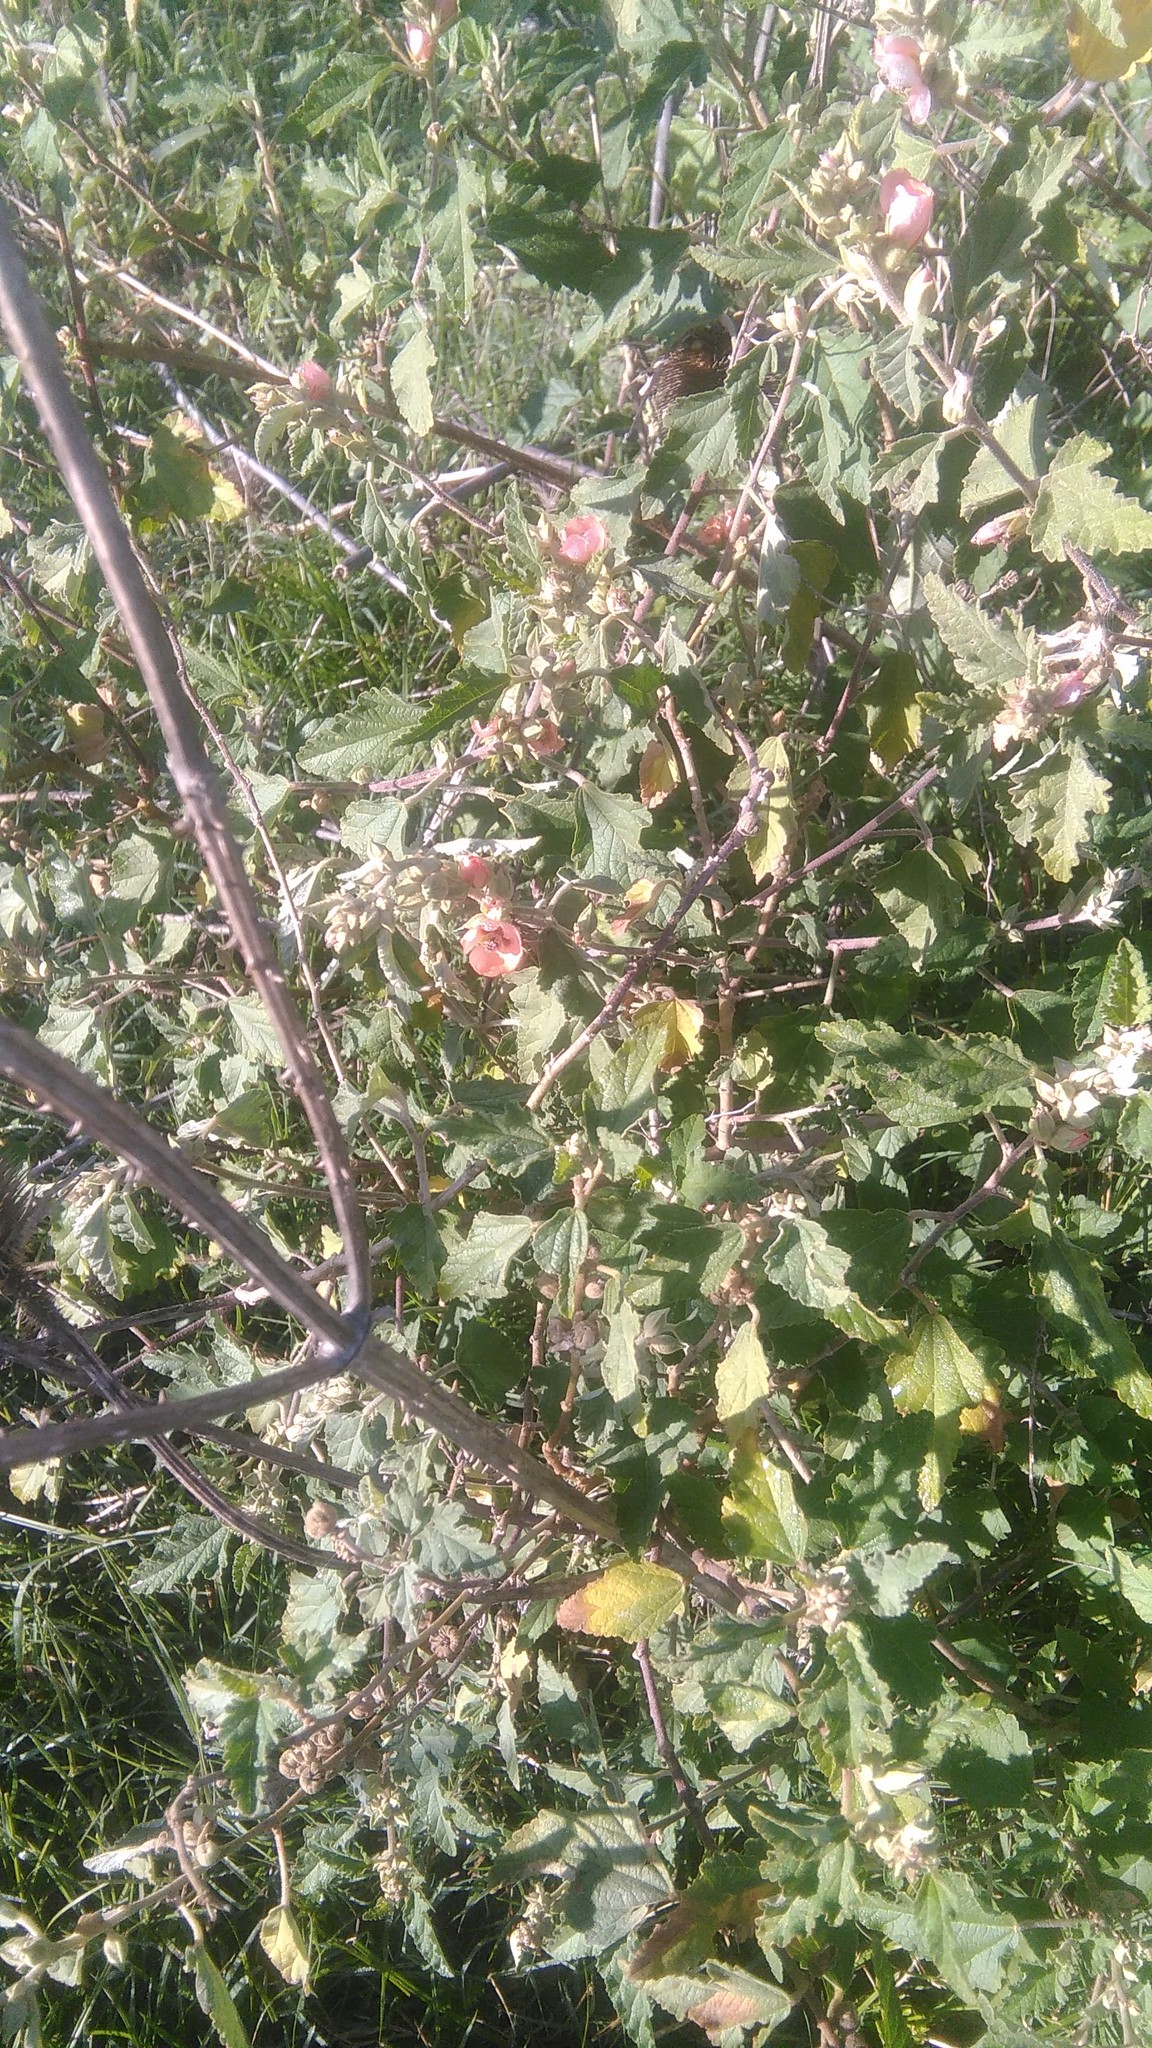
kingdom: Plantae
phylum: Tracheophyta
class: Magnoliopsida
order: Malvales
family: Malvaceae
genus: Sphaeralcea
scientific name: Sphaeralcea bonariensis
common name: Latin globemallow
